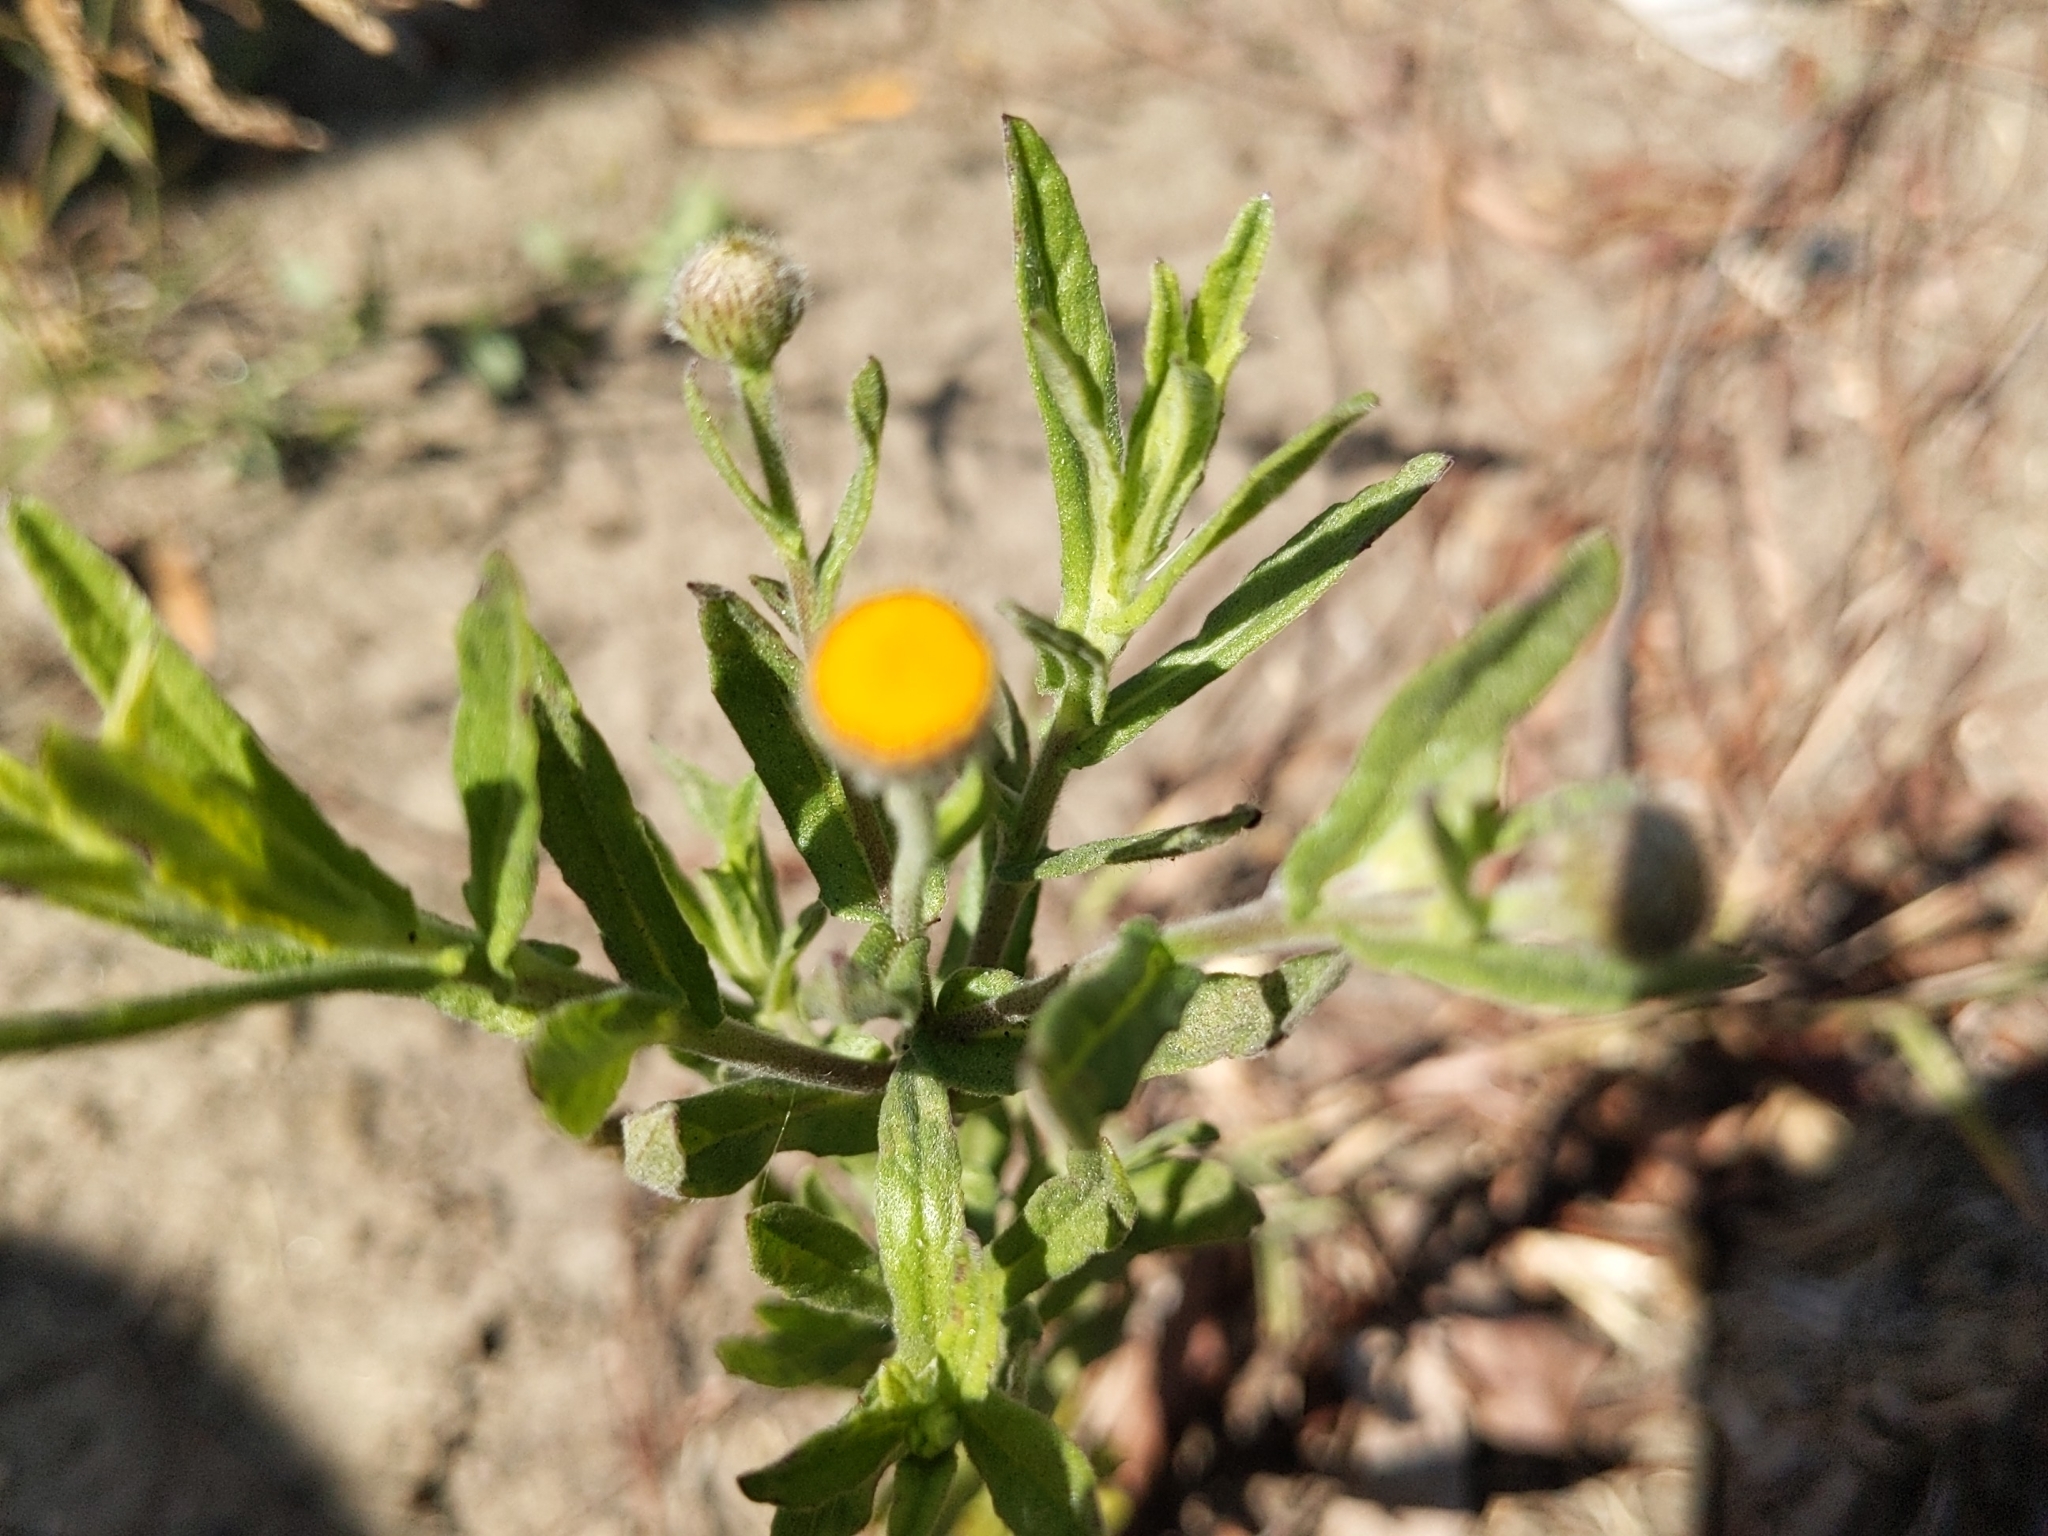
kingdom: Plantae
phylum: Tracheophyta
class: Magnoliopsida
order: Asterales
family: Asteraceae
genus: Pulicaria
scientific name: Pulicaria paludosa
